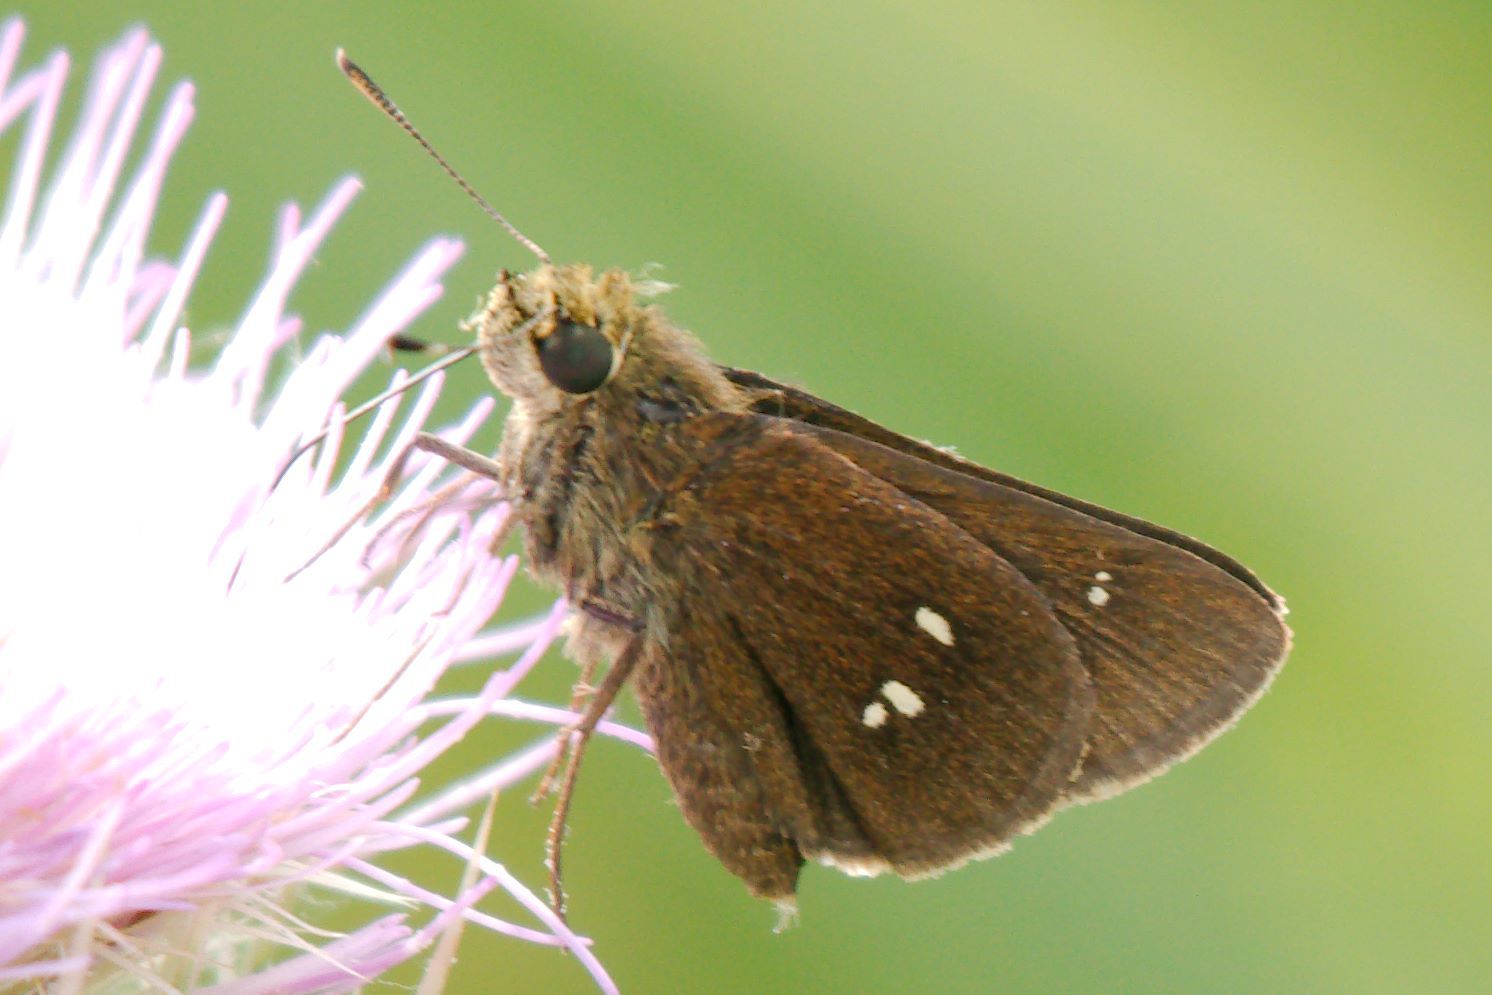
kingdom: Animalia
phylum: Arthropoda
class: Insecta
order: Lepidoptera
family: Hesperiidae
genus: Oligoria
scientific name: Oligoria maculata
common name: Twin-spot skipper
